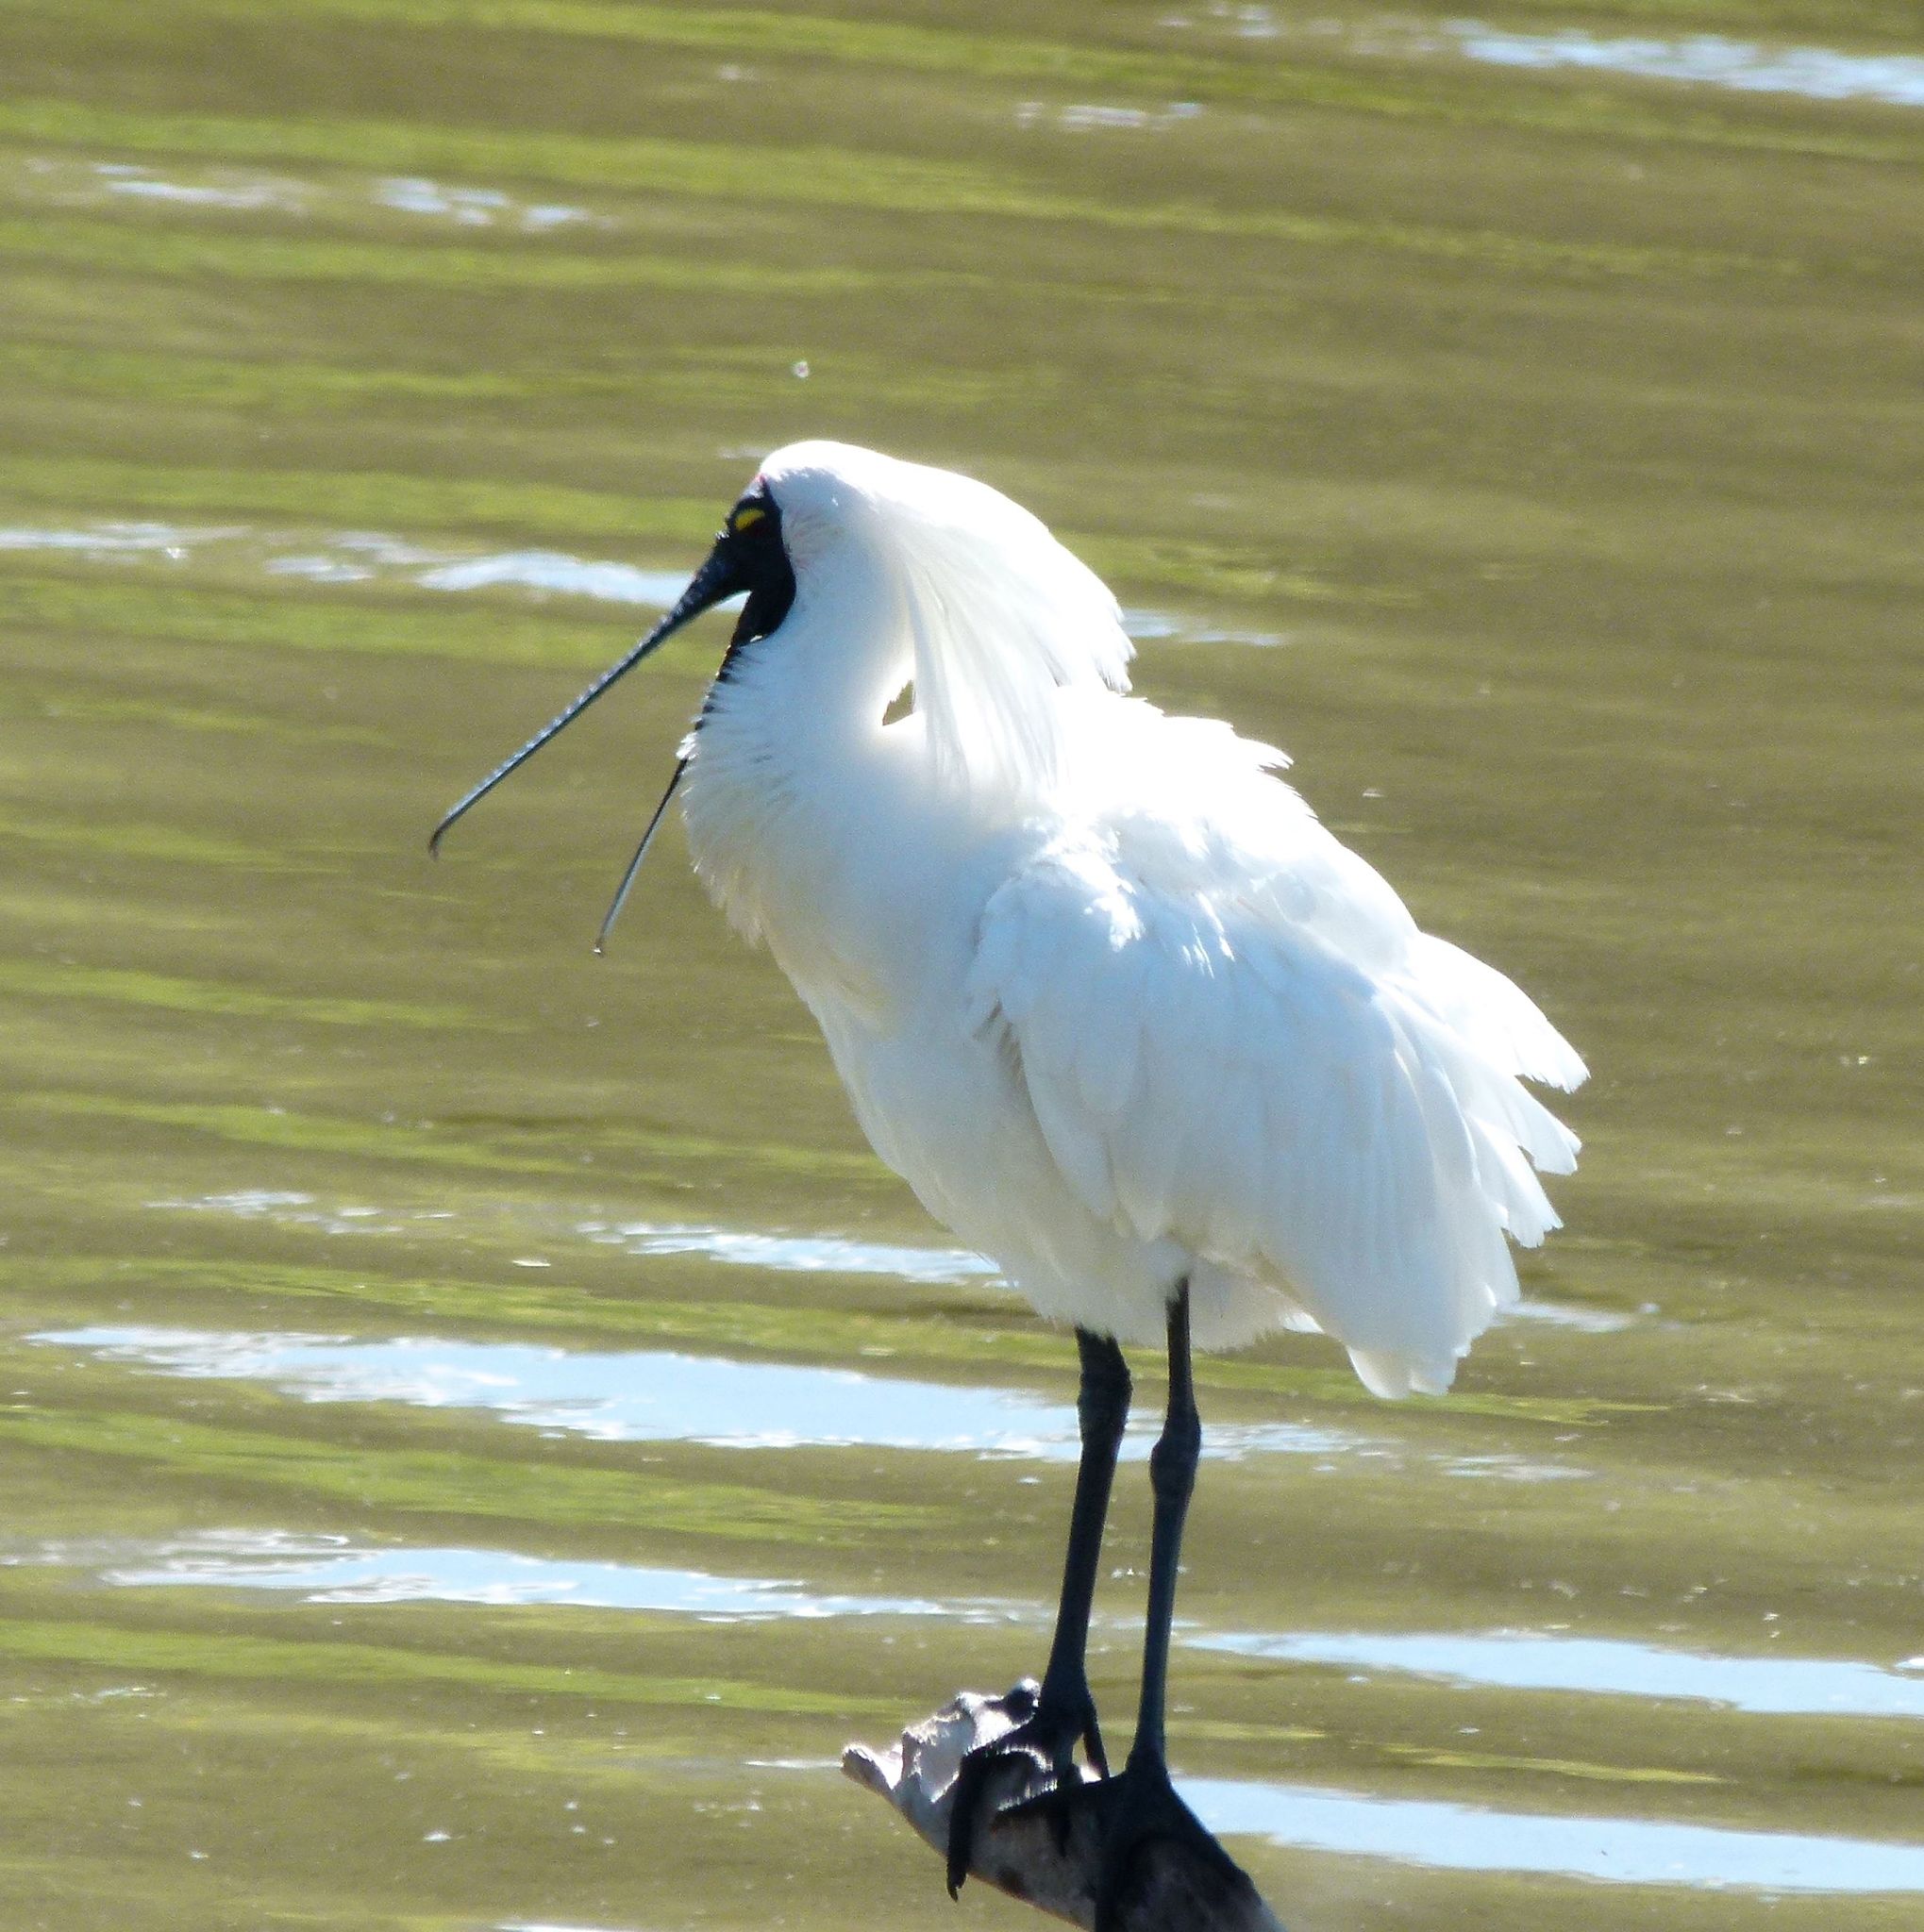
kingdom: Animalia
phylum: Chordata
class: Aves
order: Pelecaniformes
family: Threskiornithidae
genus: Platalea
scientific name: Platalea regia
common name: Royal spoonbill
